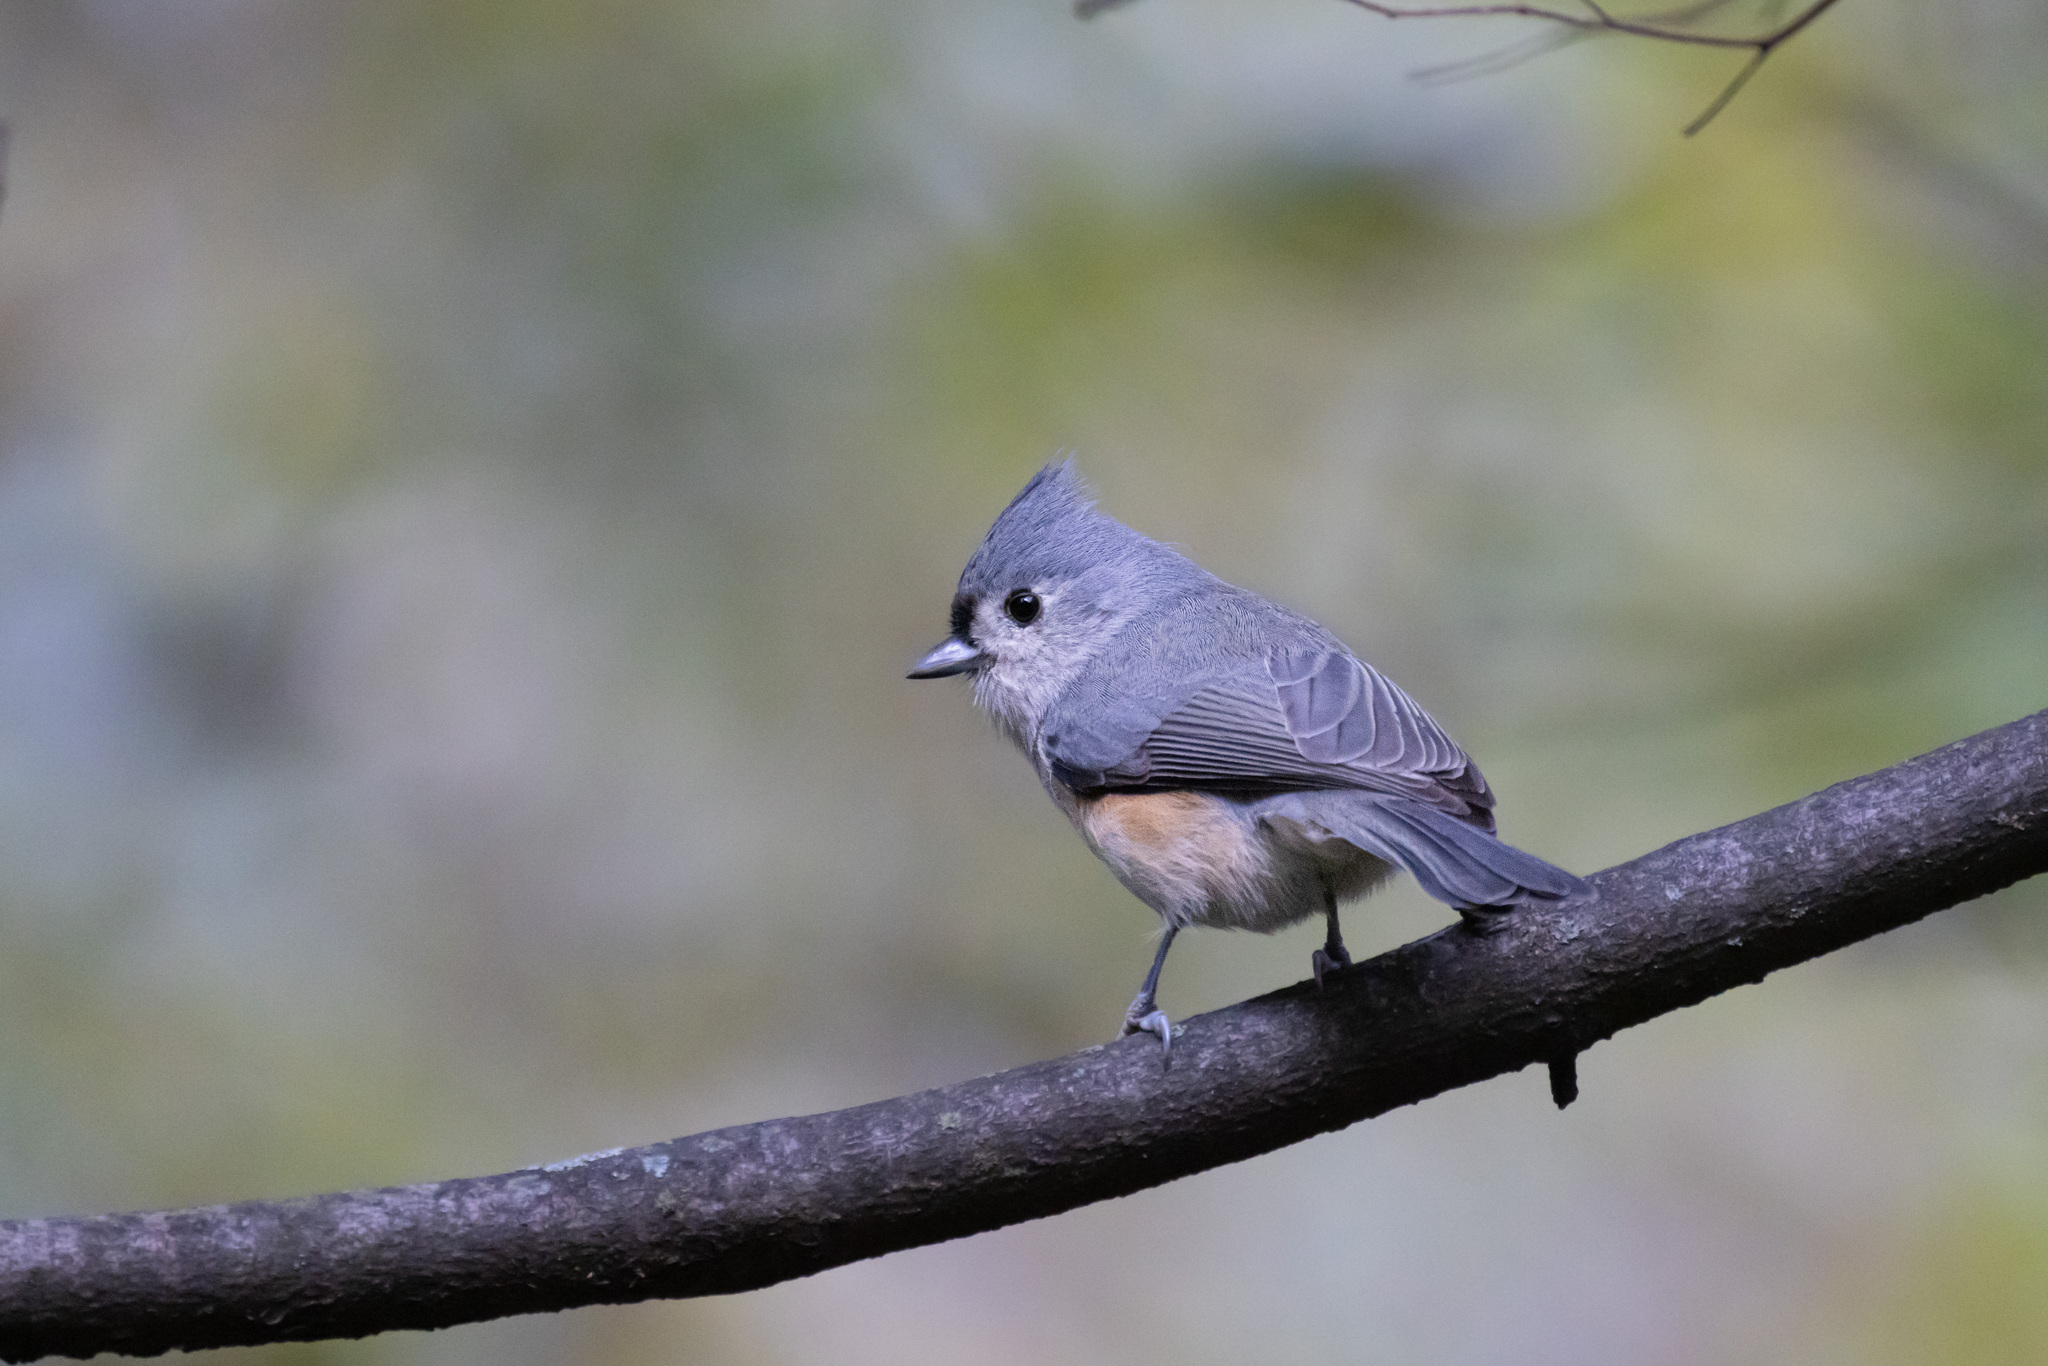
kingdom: Animalia
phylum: Chordata
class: Aves
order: Passeriformes
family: Paridae
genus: Baeolophus
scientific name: Baeolophus bicolor
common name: Tufted titmouse
